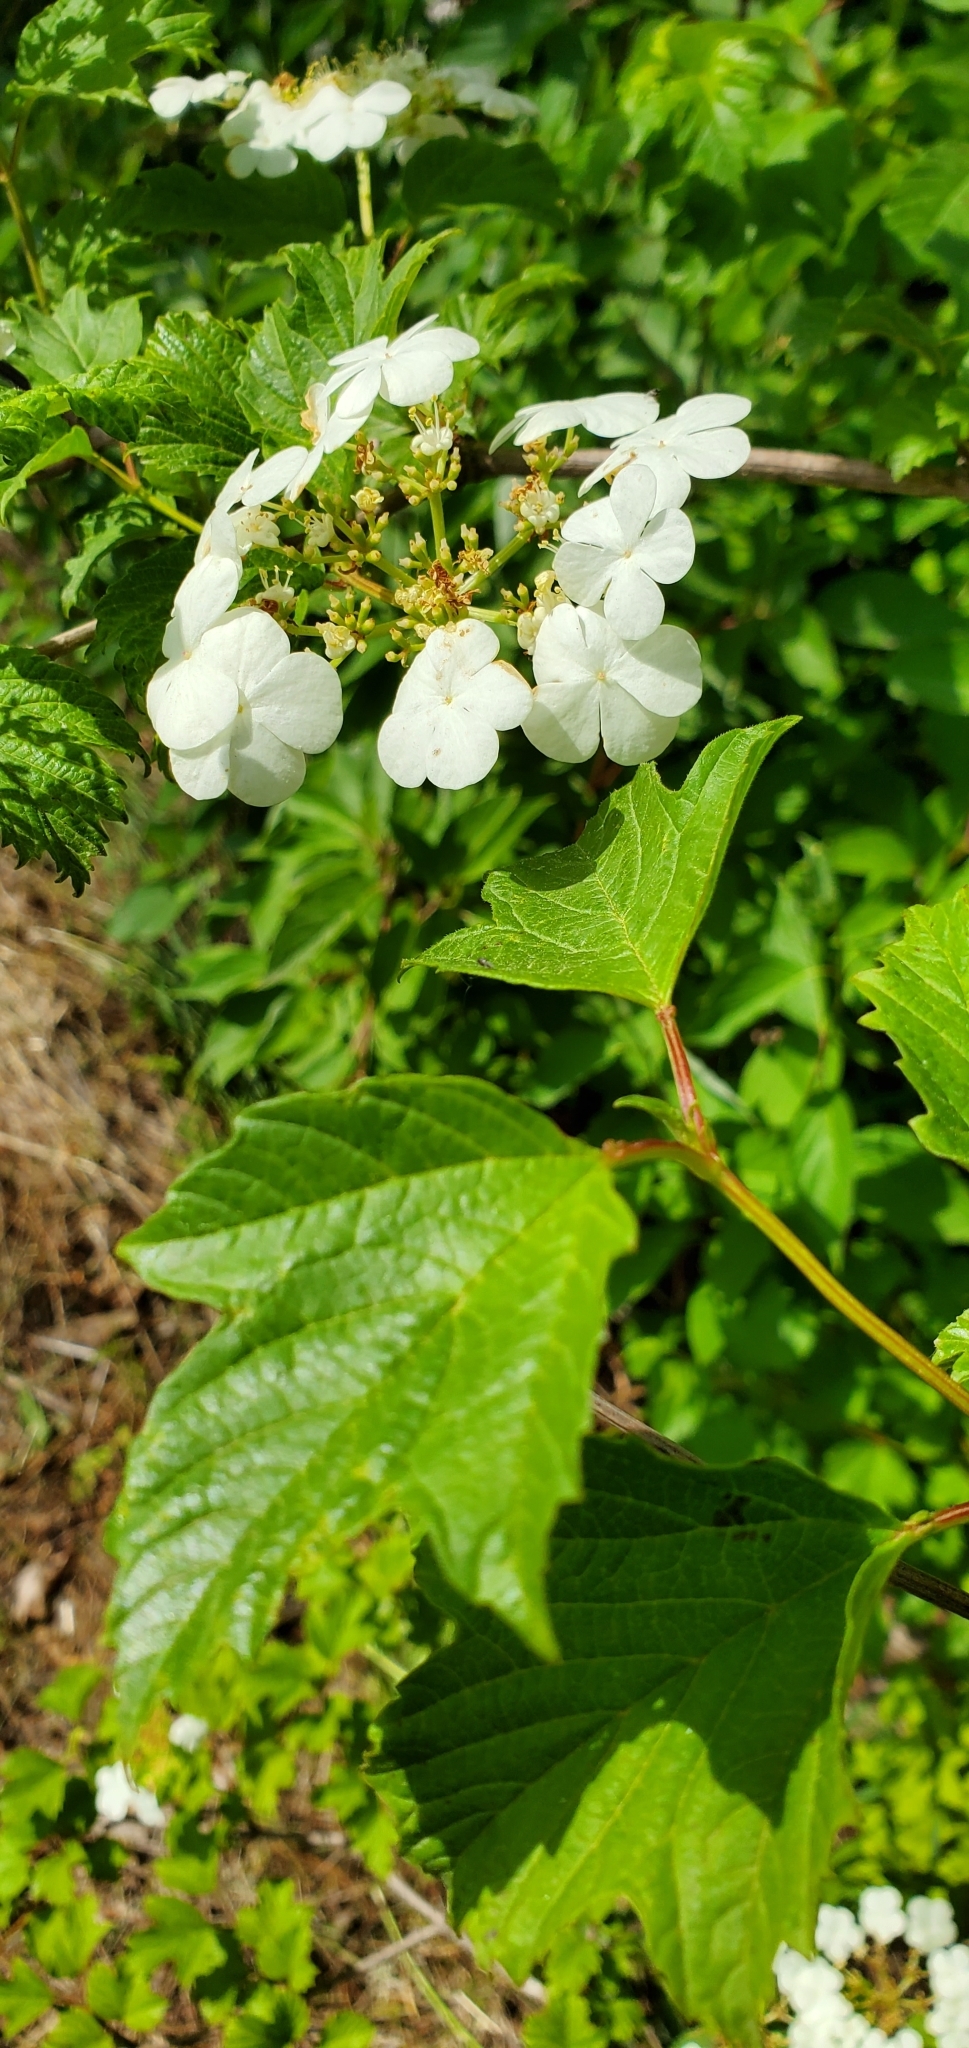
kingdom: Plantae
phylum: Tracheophyta
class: Magnoliopsida
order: Dipsacales
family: Viburnaceae
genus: Viburnum
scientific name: Viburnum trilobum
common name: American cranberrybush
